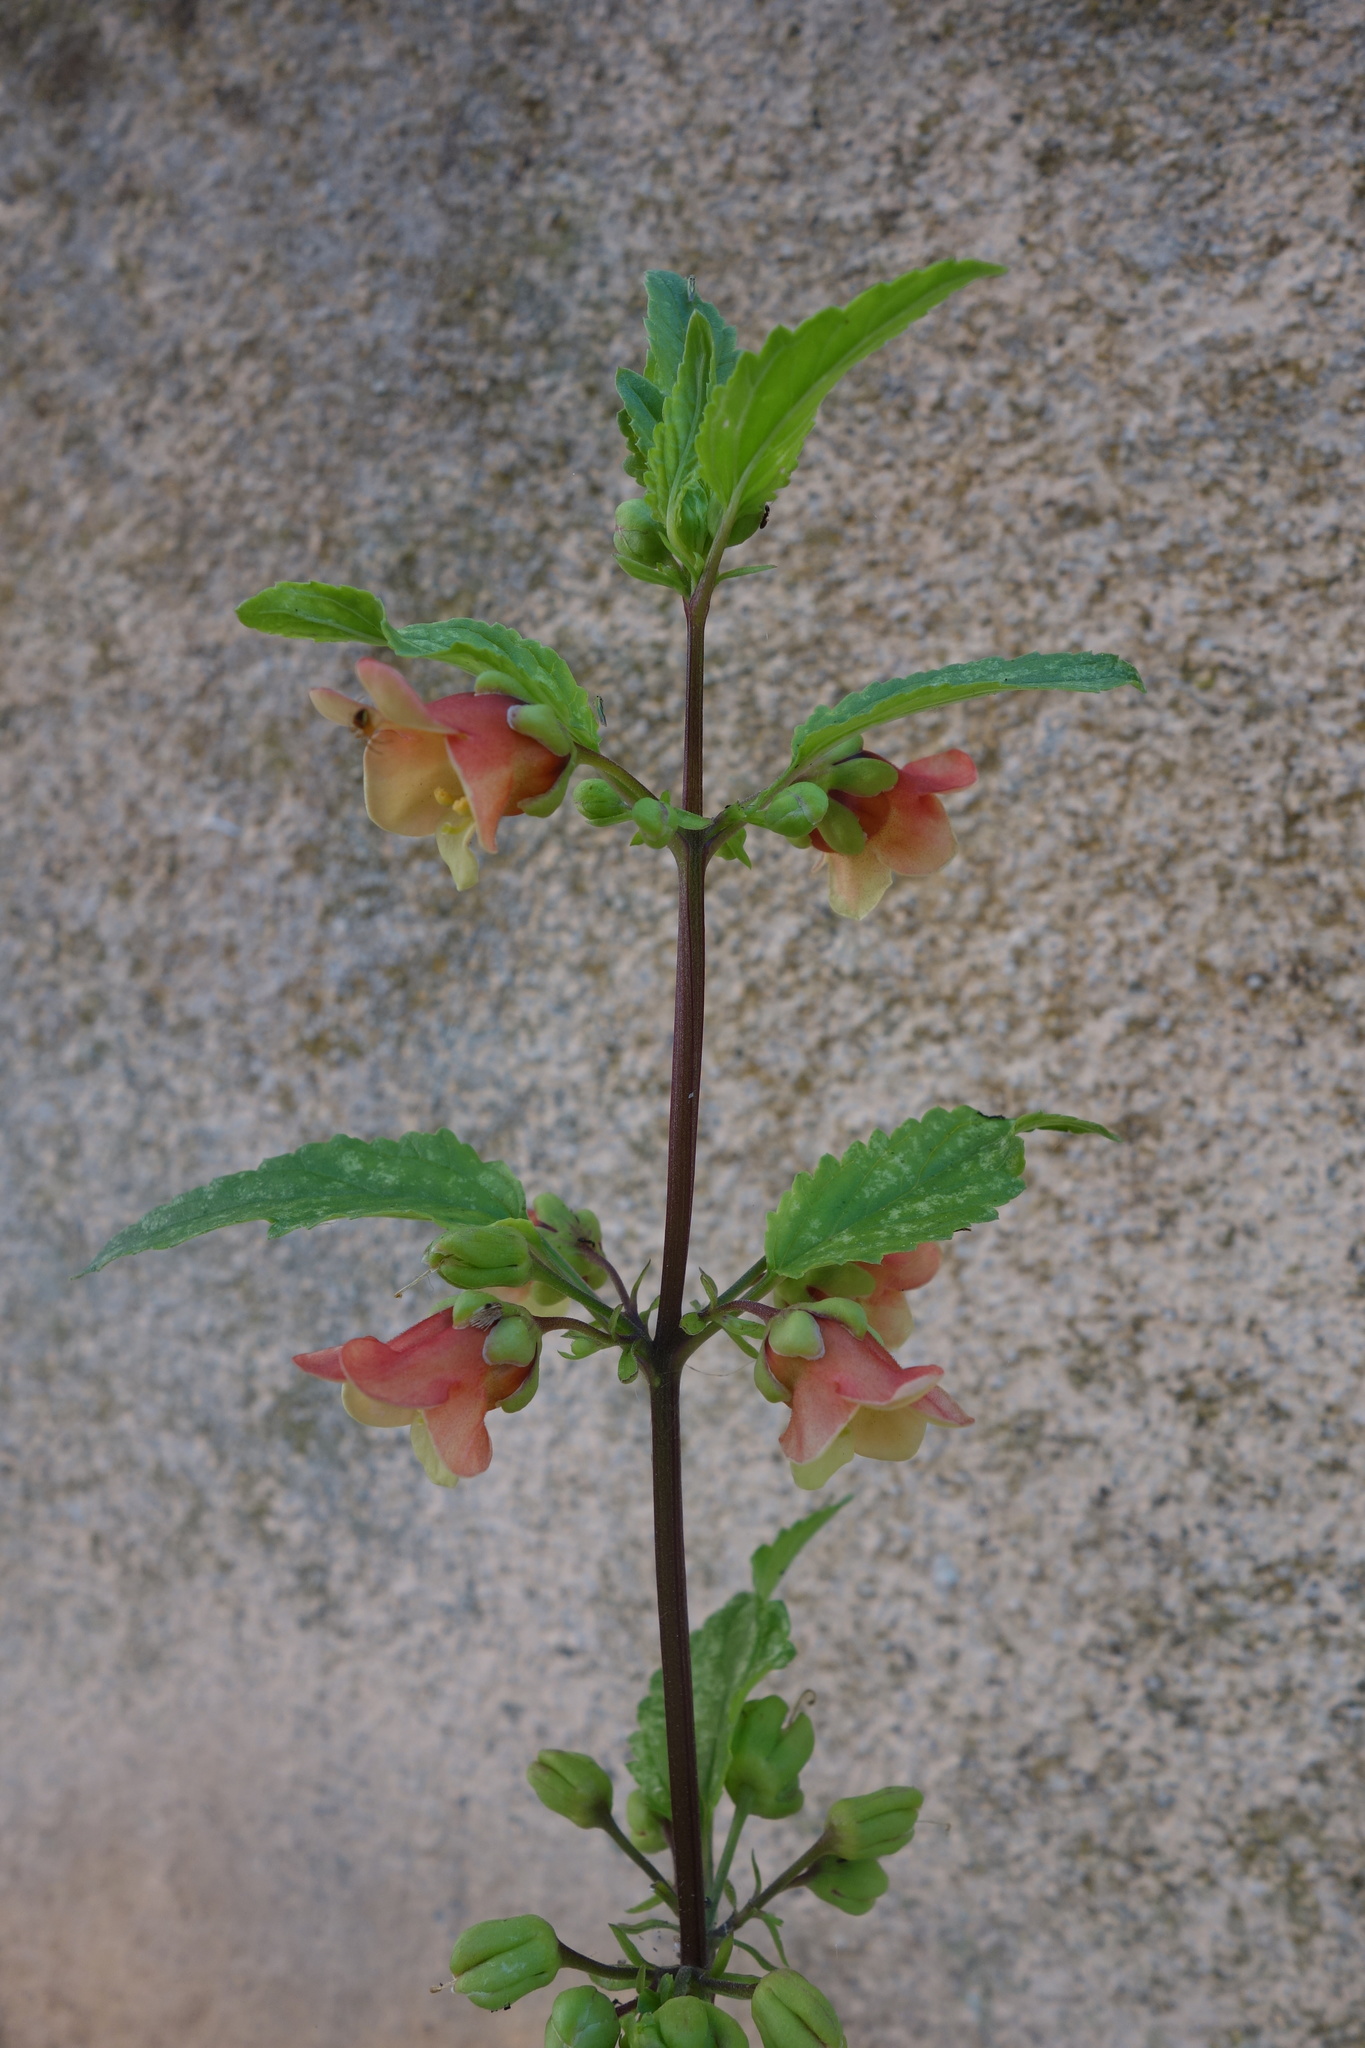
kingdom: Plantae
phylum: Tracheophyta
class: Magnoliopsida
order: Lamiales
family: Scrophulariaceae
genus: Scrophularia
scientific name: Scrophularia trifoliata
